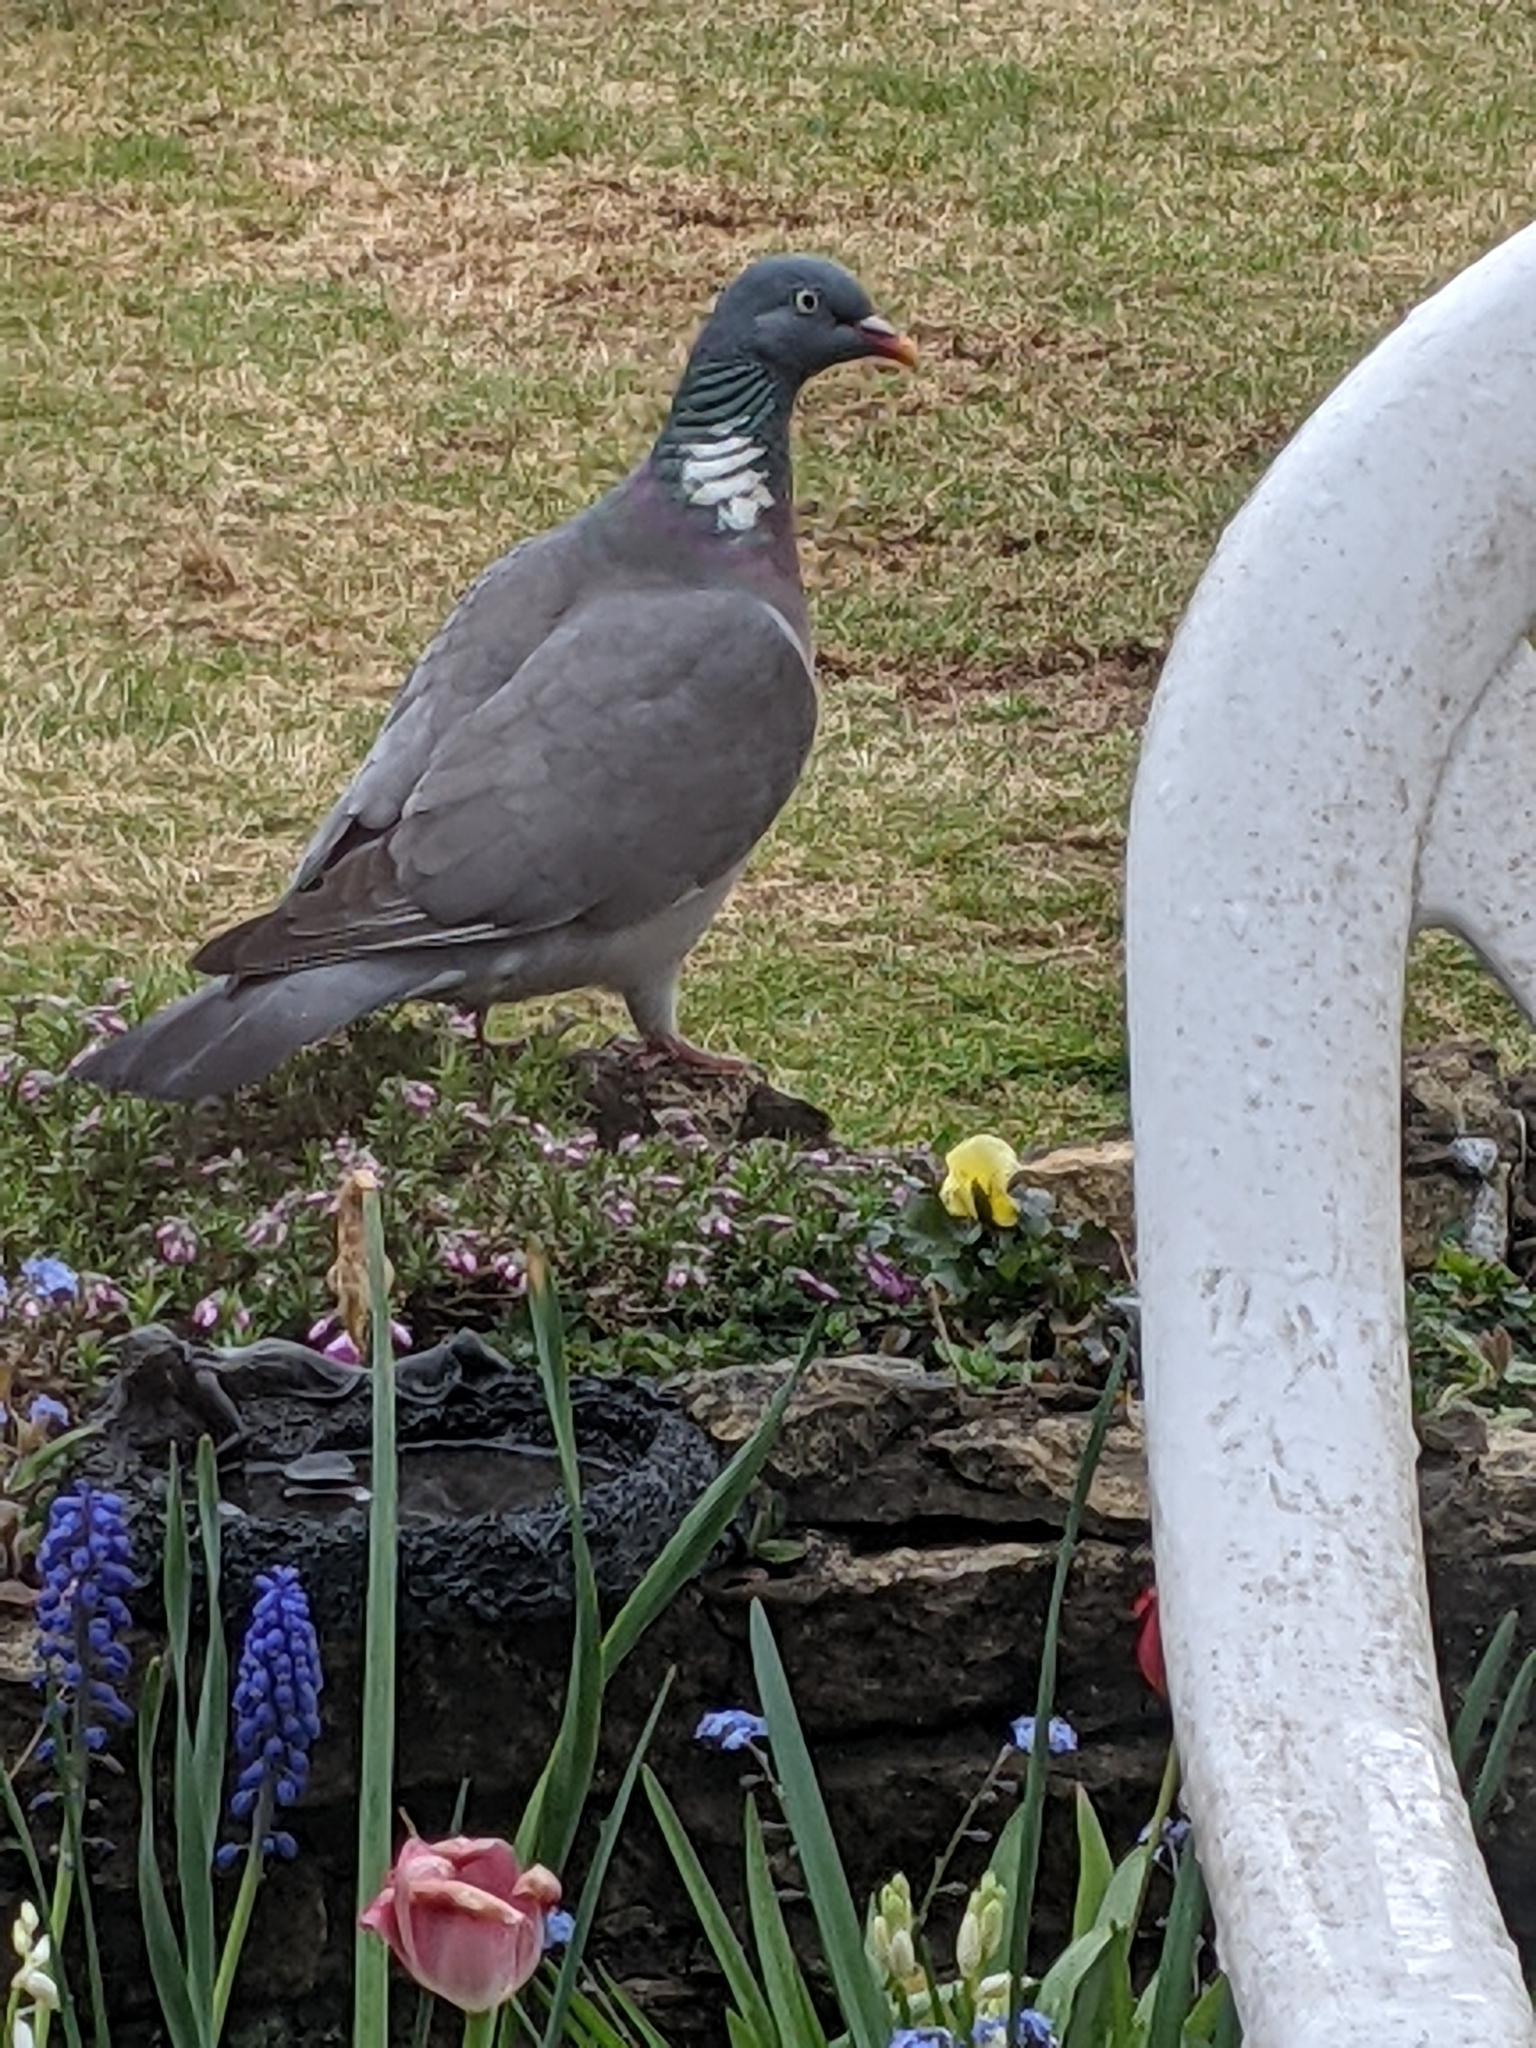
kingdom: Animalia
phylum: Chordata
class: Aves
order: Columbiformes
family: Columbidae
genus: Columba
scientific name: Columba palumbus
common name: Common wood pigeon
